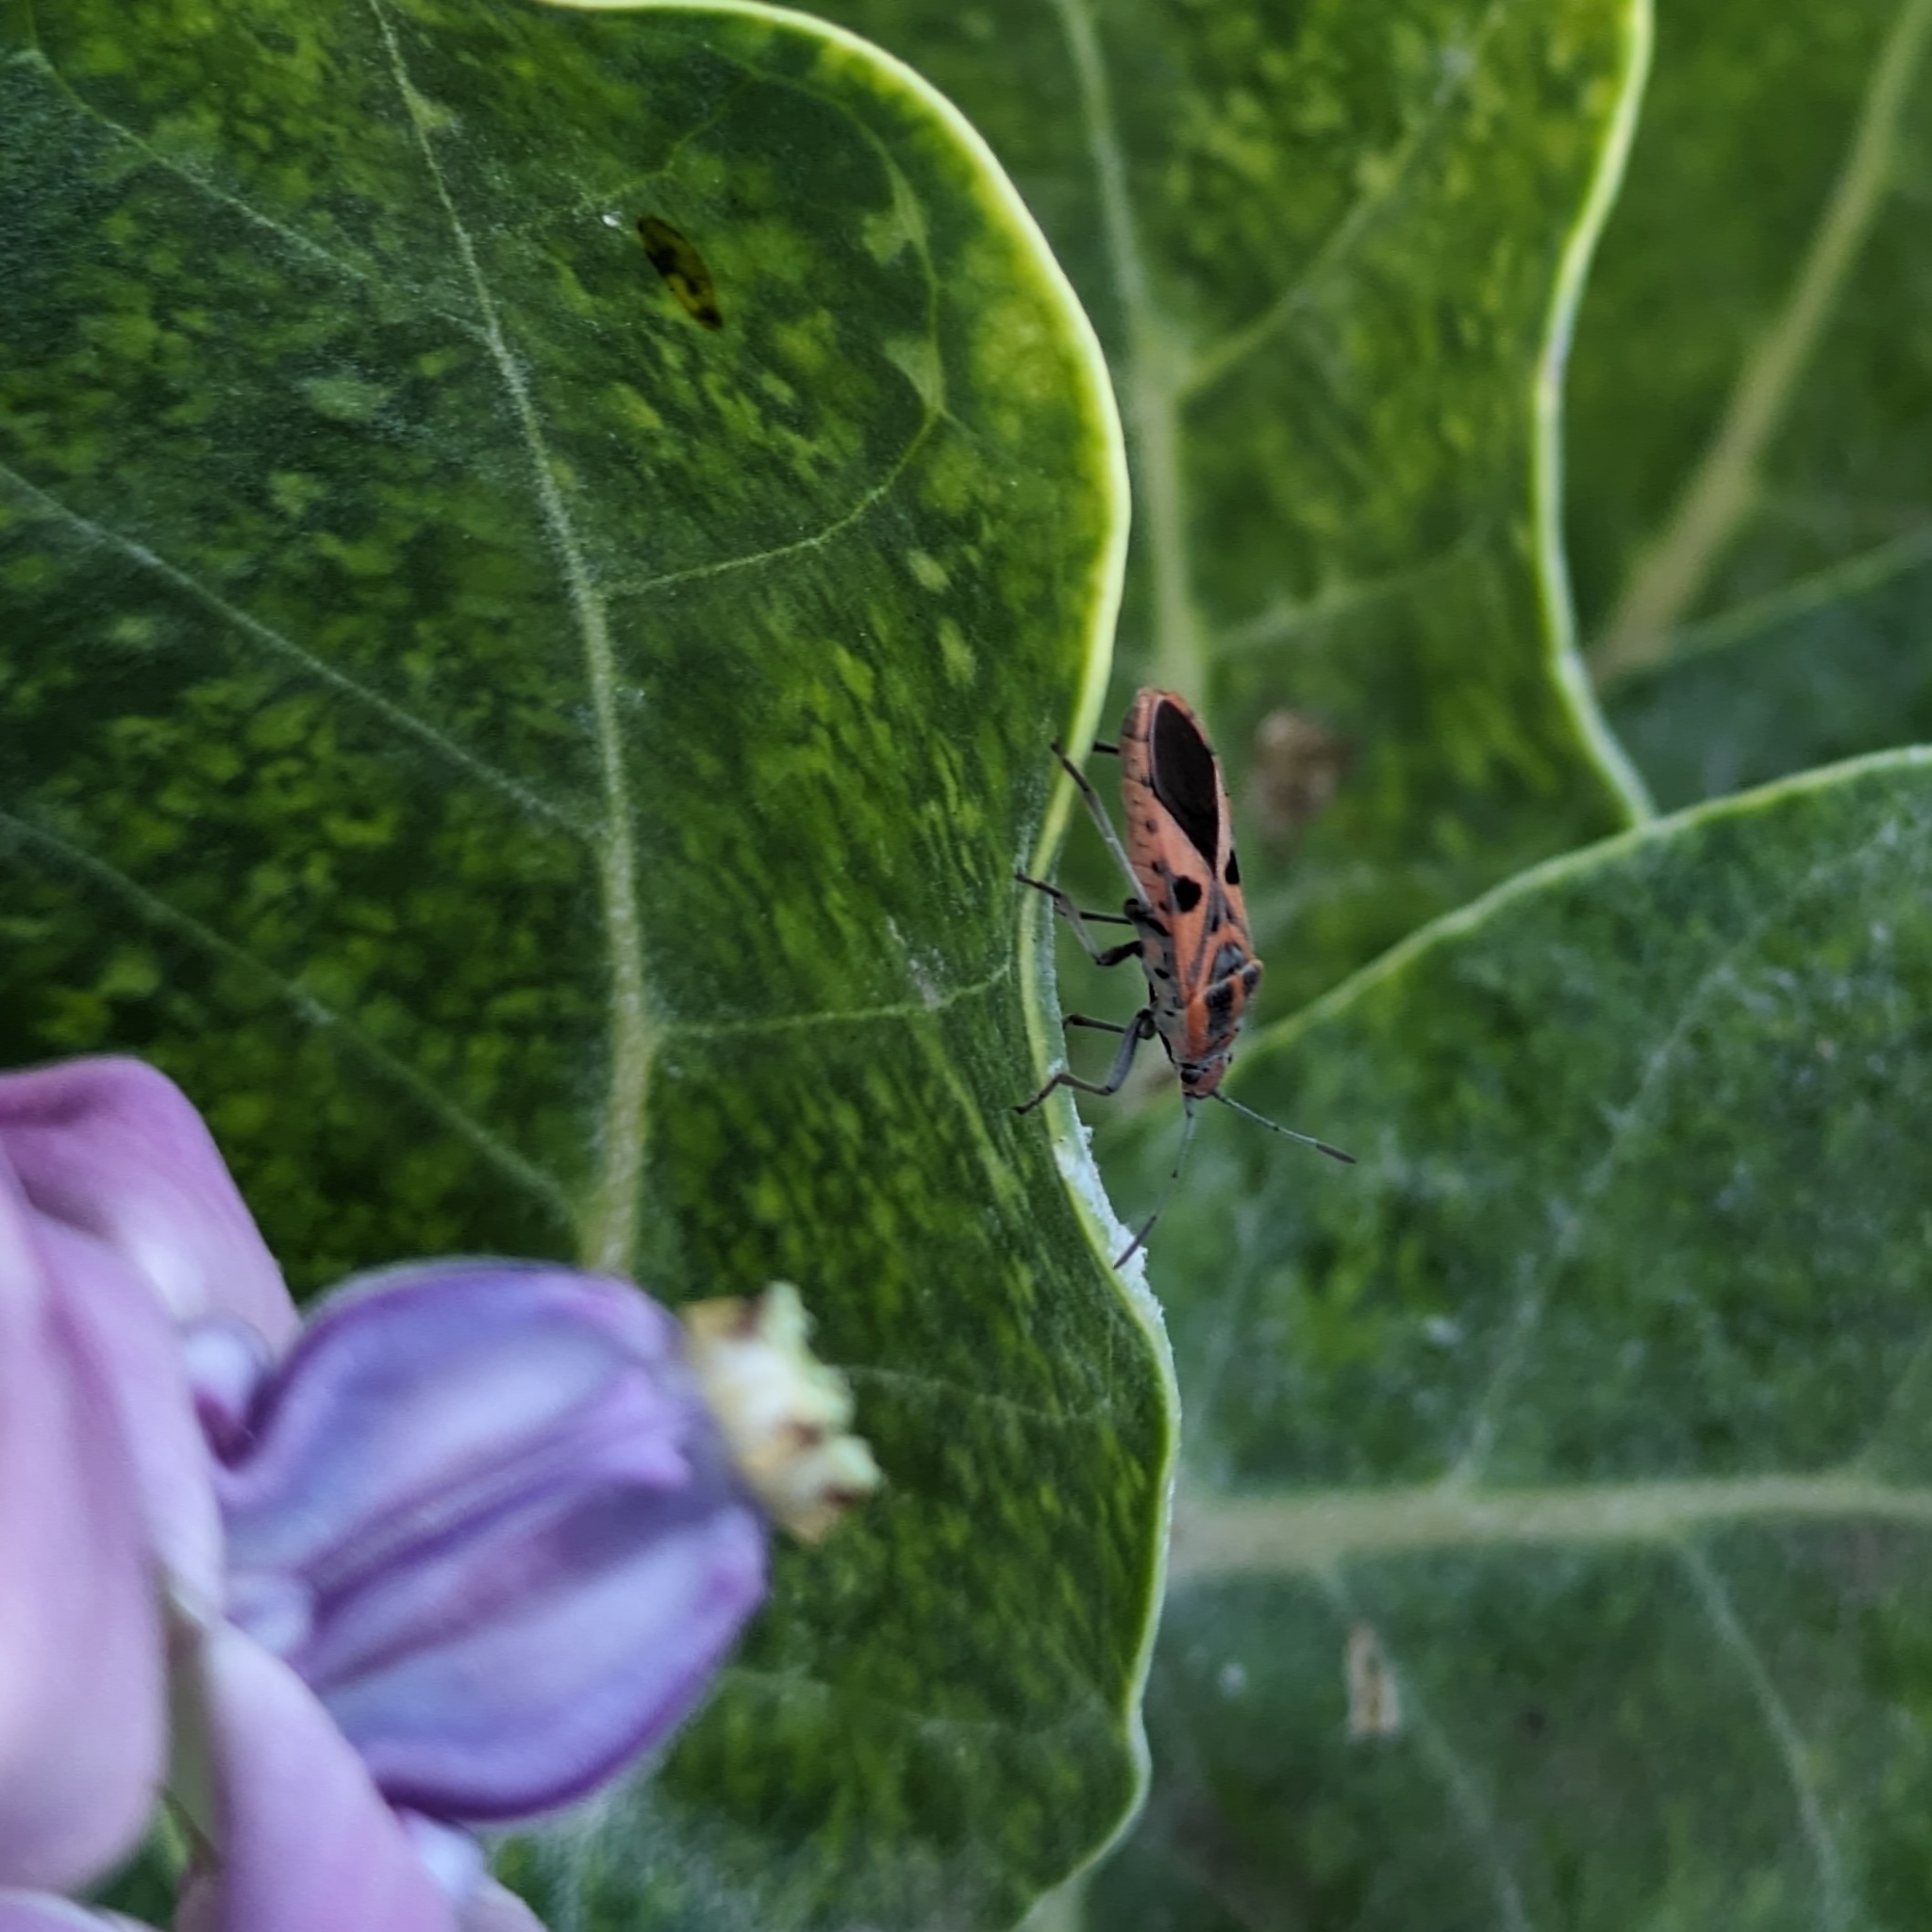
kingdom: Animalia
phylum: Arthropoda
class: Insecta
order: Hemiptera
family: Lygaeidae
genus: Spilostethus
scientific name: Spilostethus hospes
